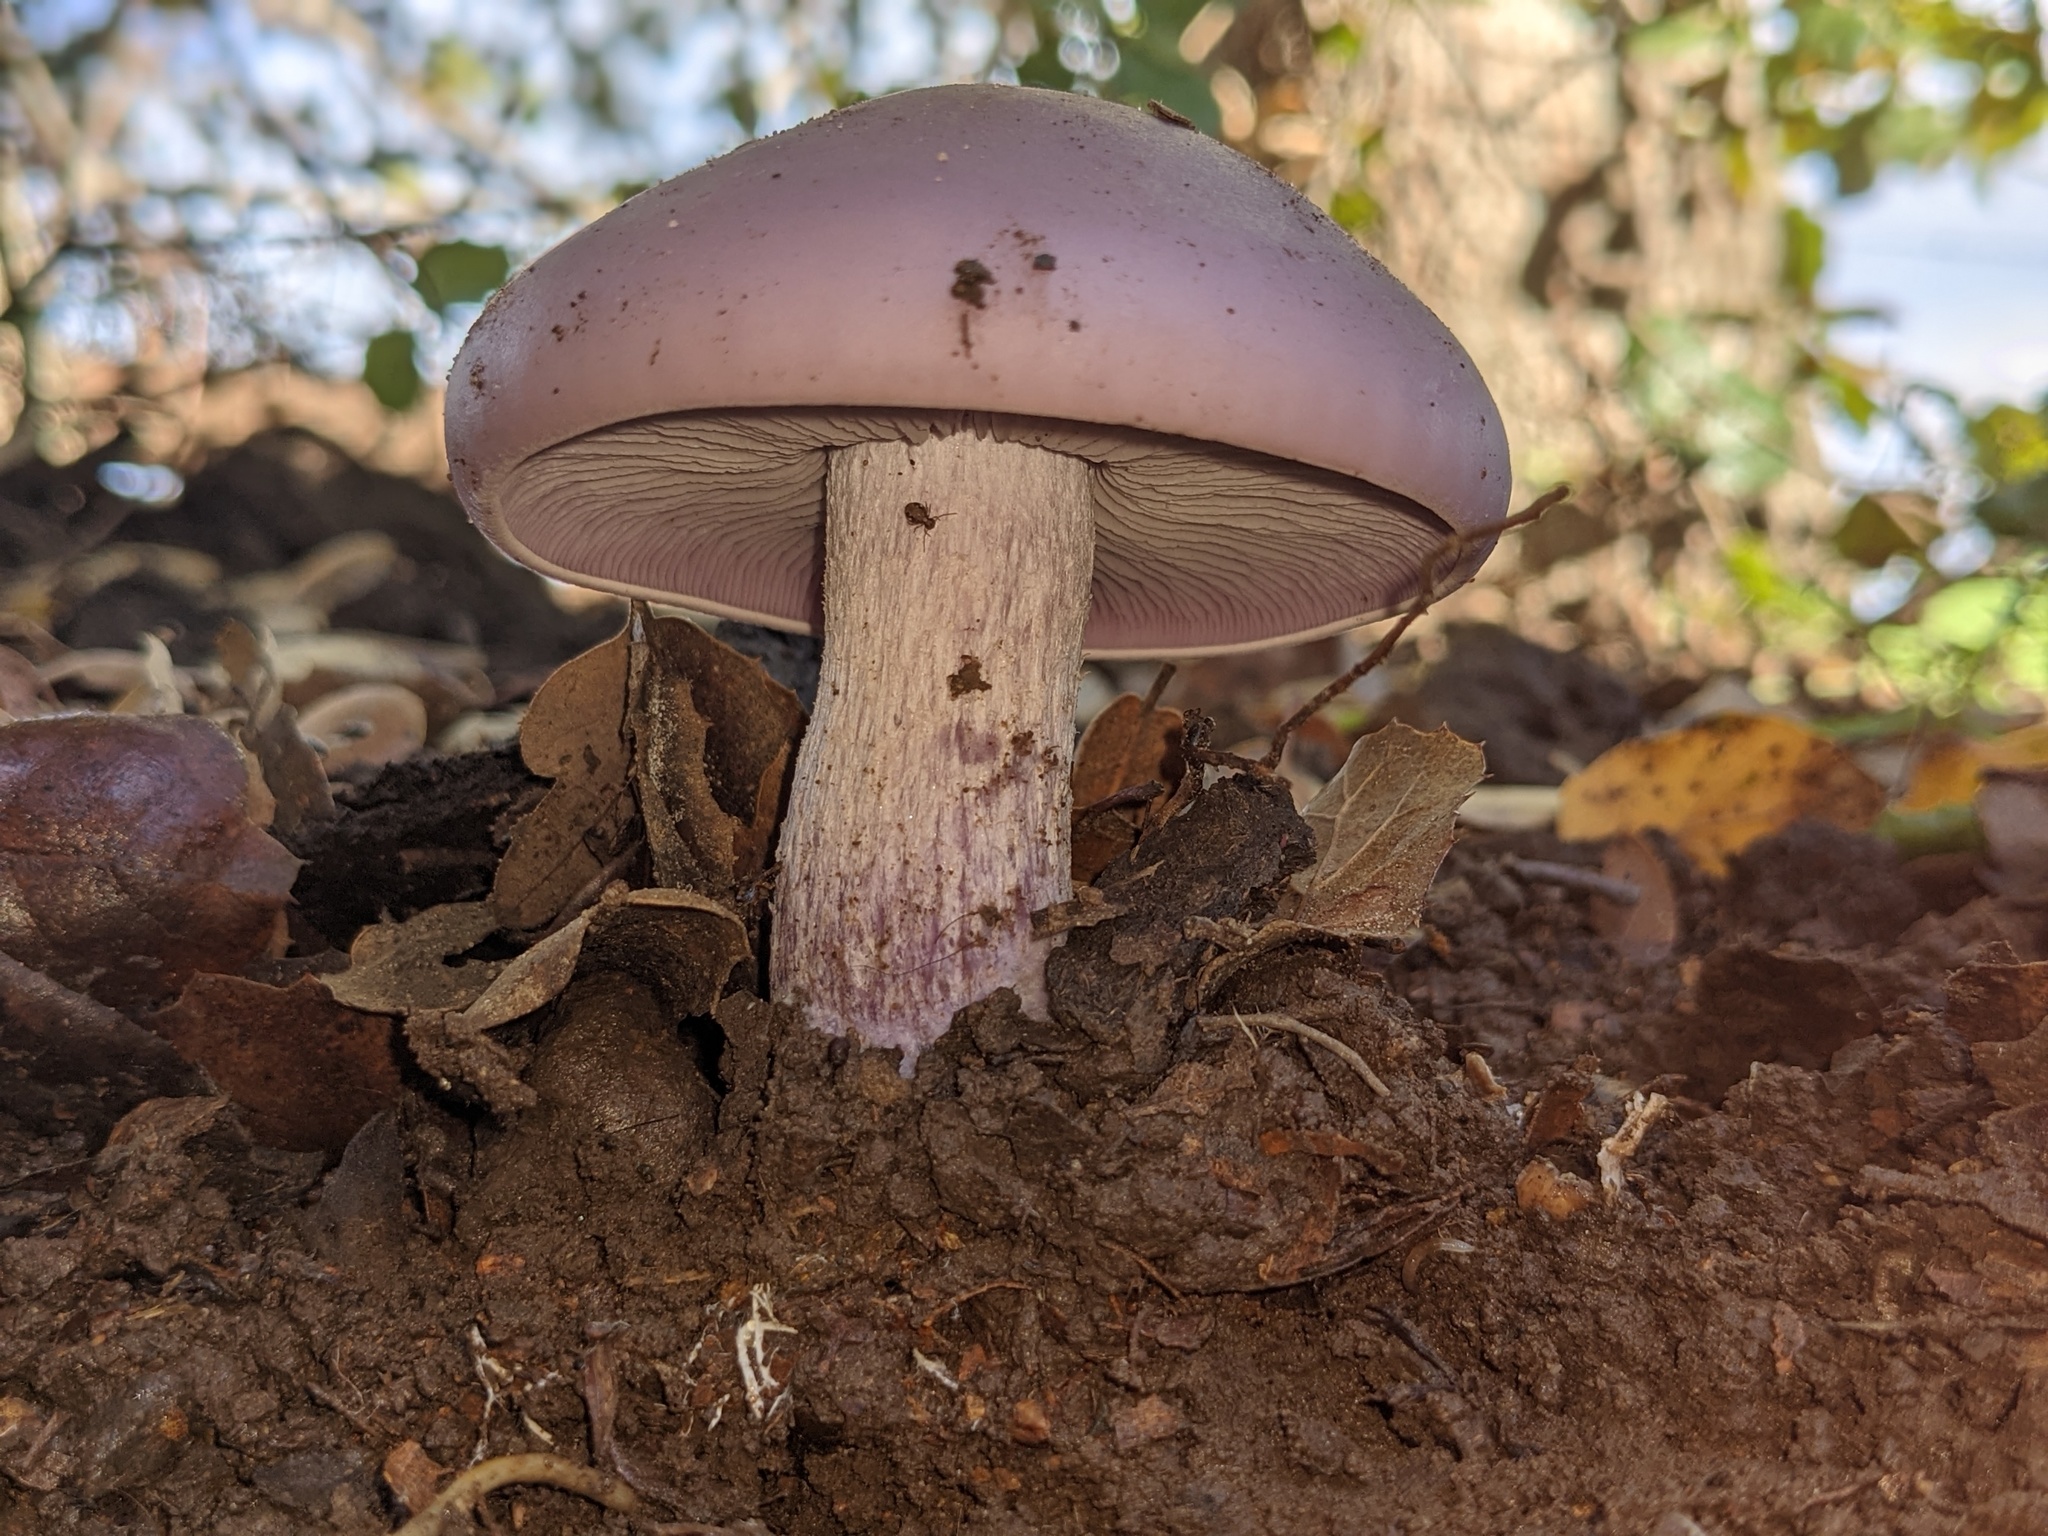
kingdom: Fungi
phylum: Basidiomycota
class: Agaricomycetes
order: Agaricales
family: Tricholomataceae
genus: Collybia
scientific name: Collybia
